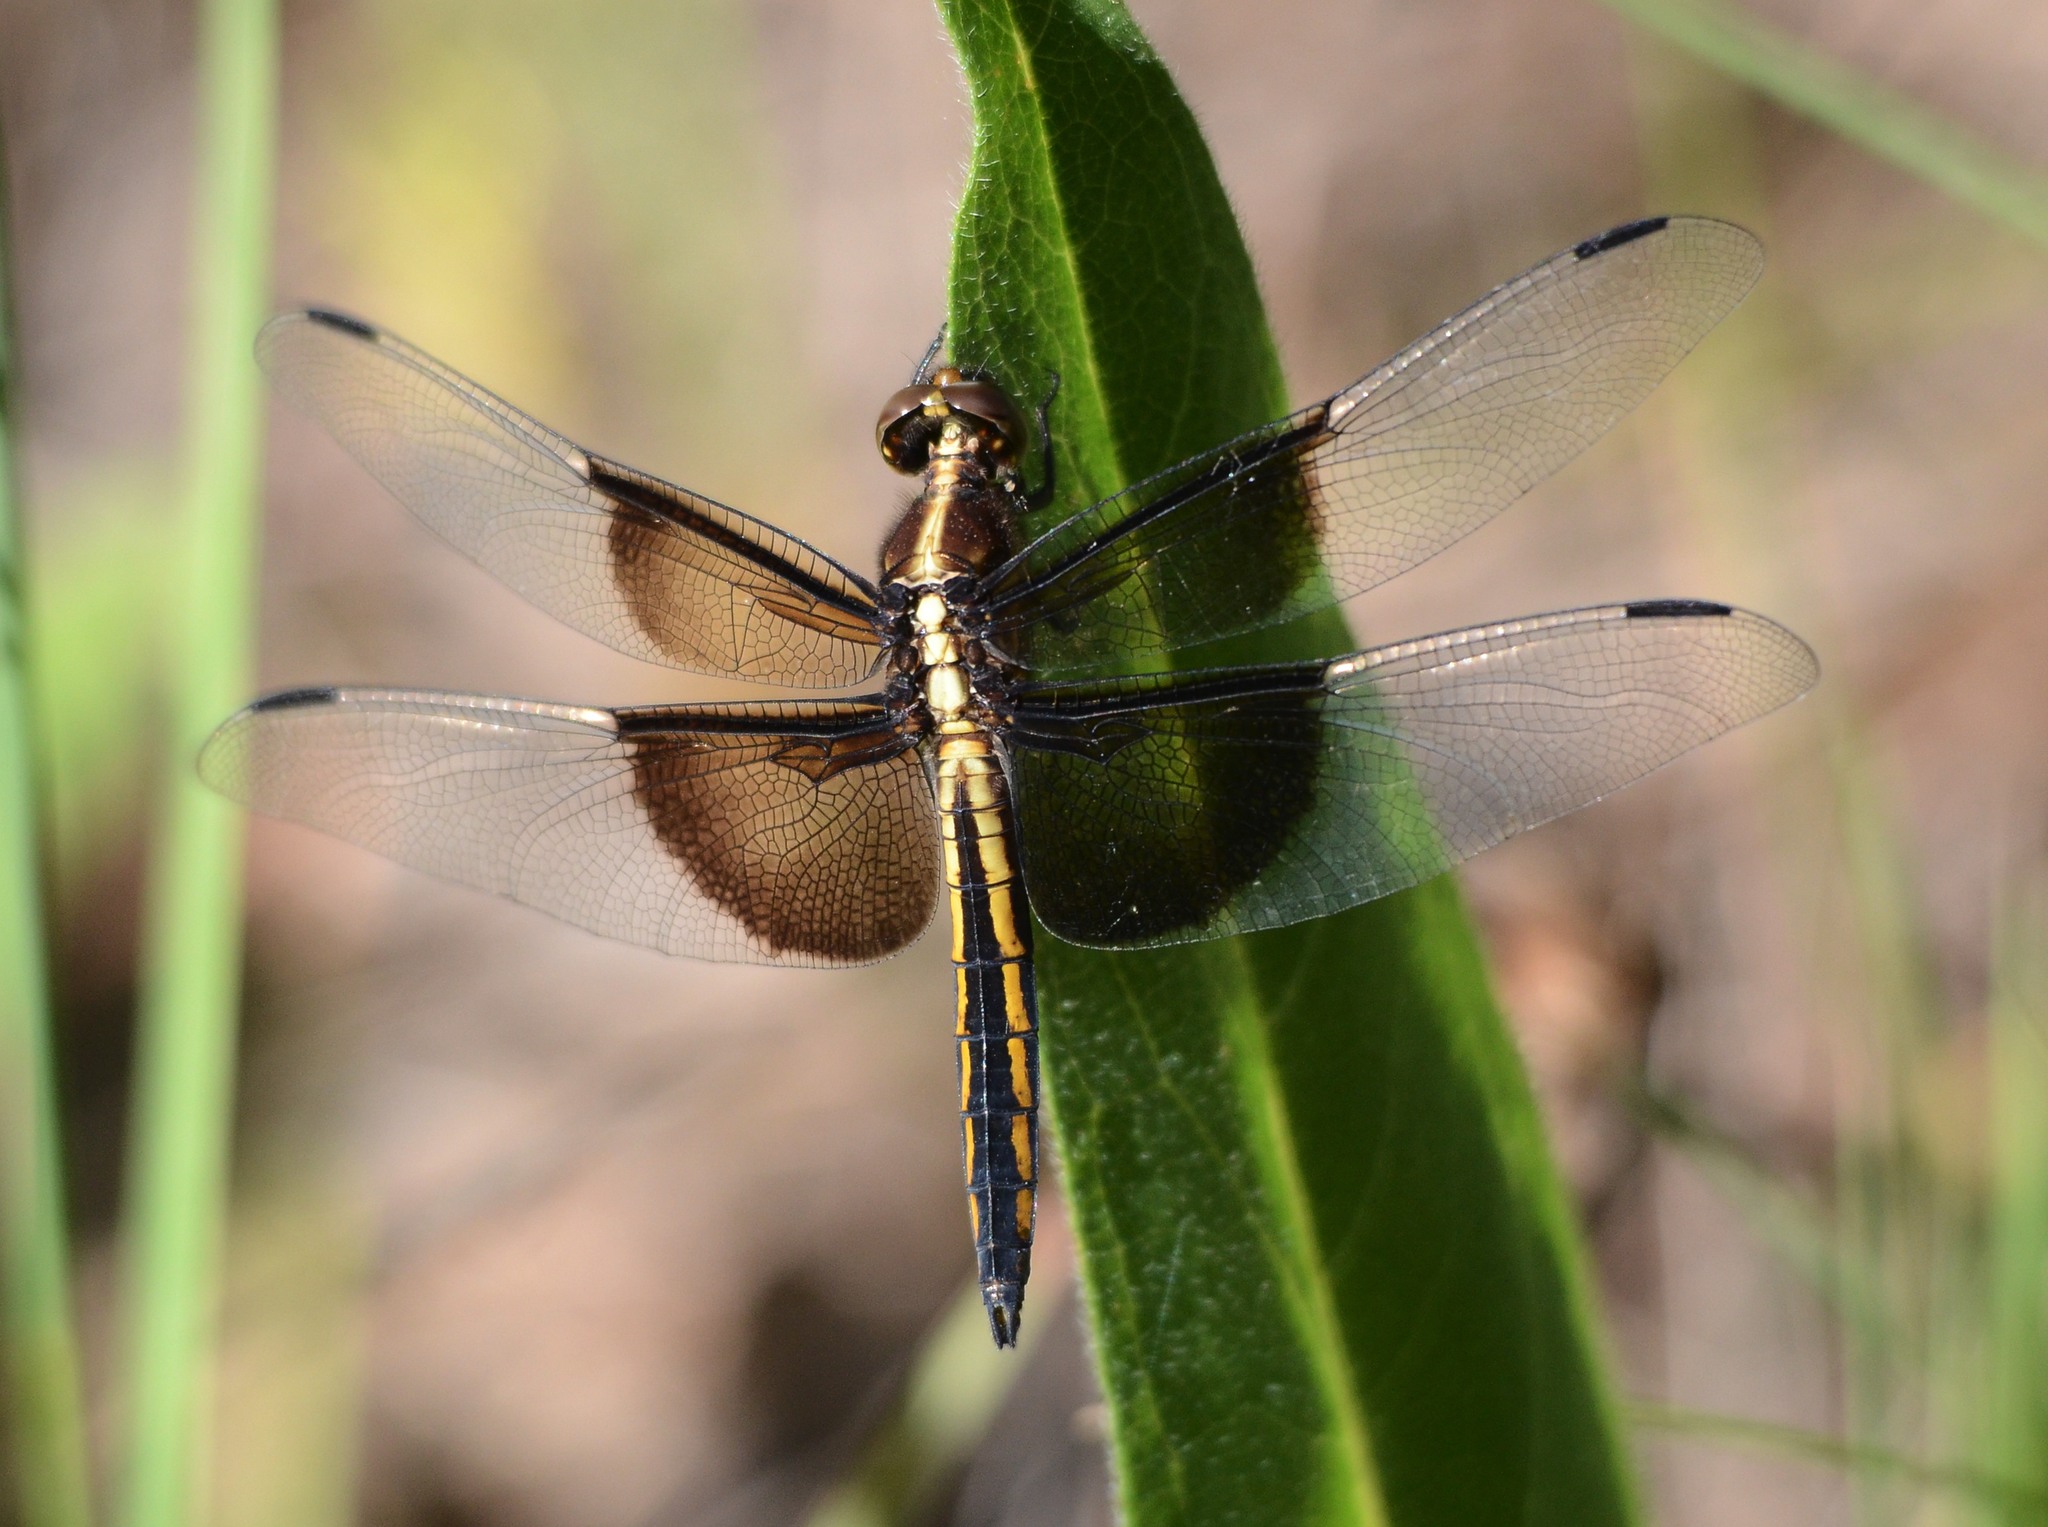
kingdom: Animalia
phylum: Arthropoda
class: Insecta
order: Odonata
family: Libellulidae
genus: Libellula
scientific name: Libellula luctuosa
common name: Widow skimmer
